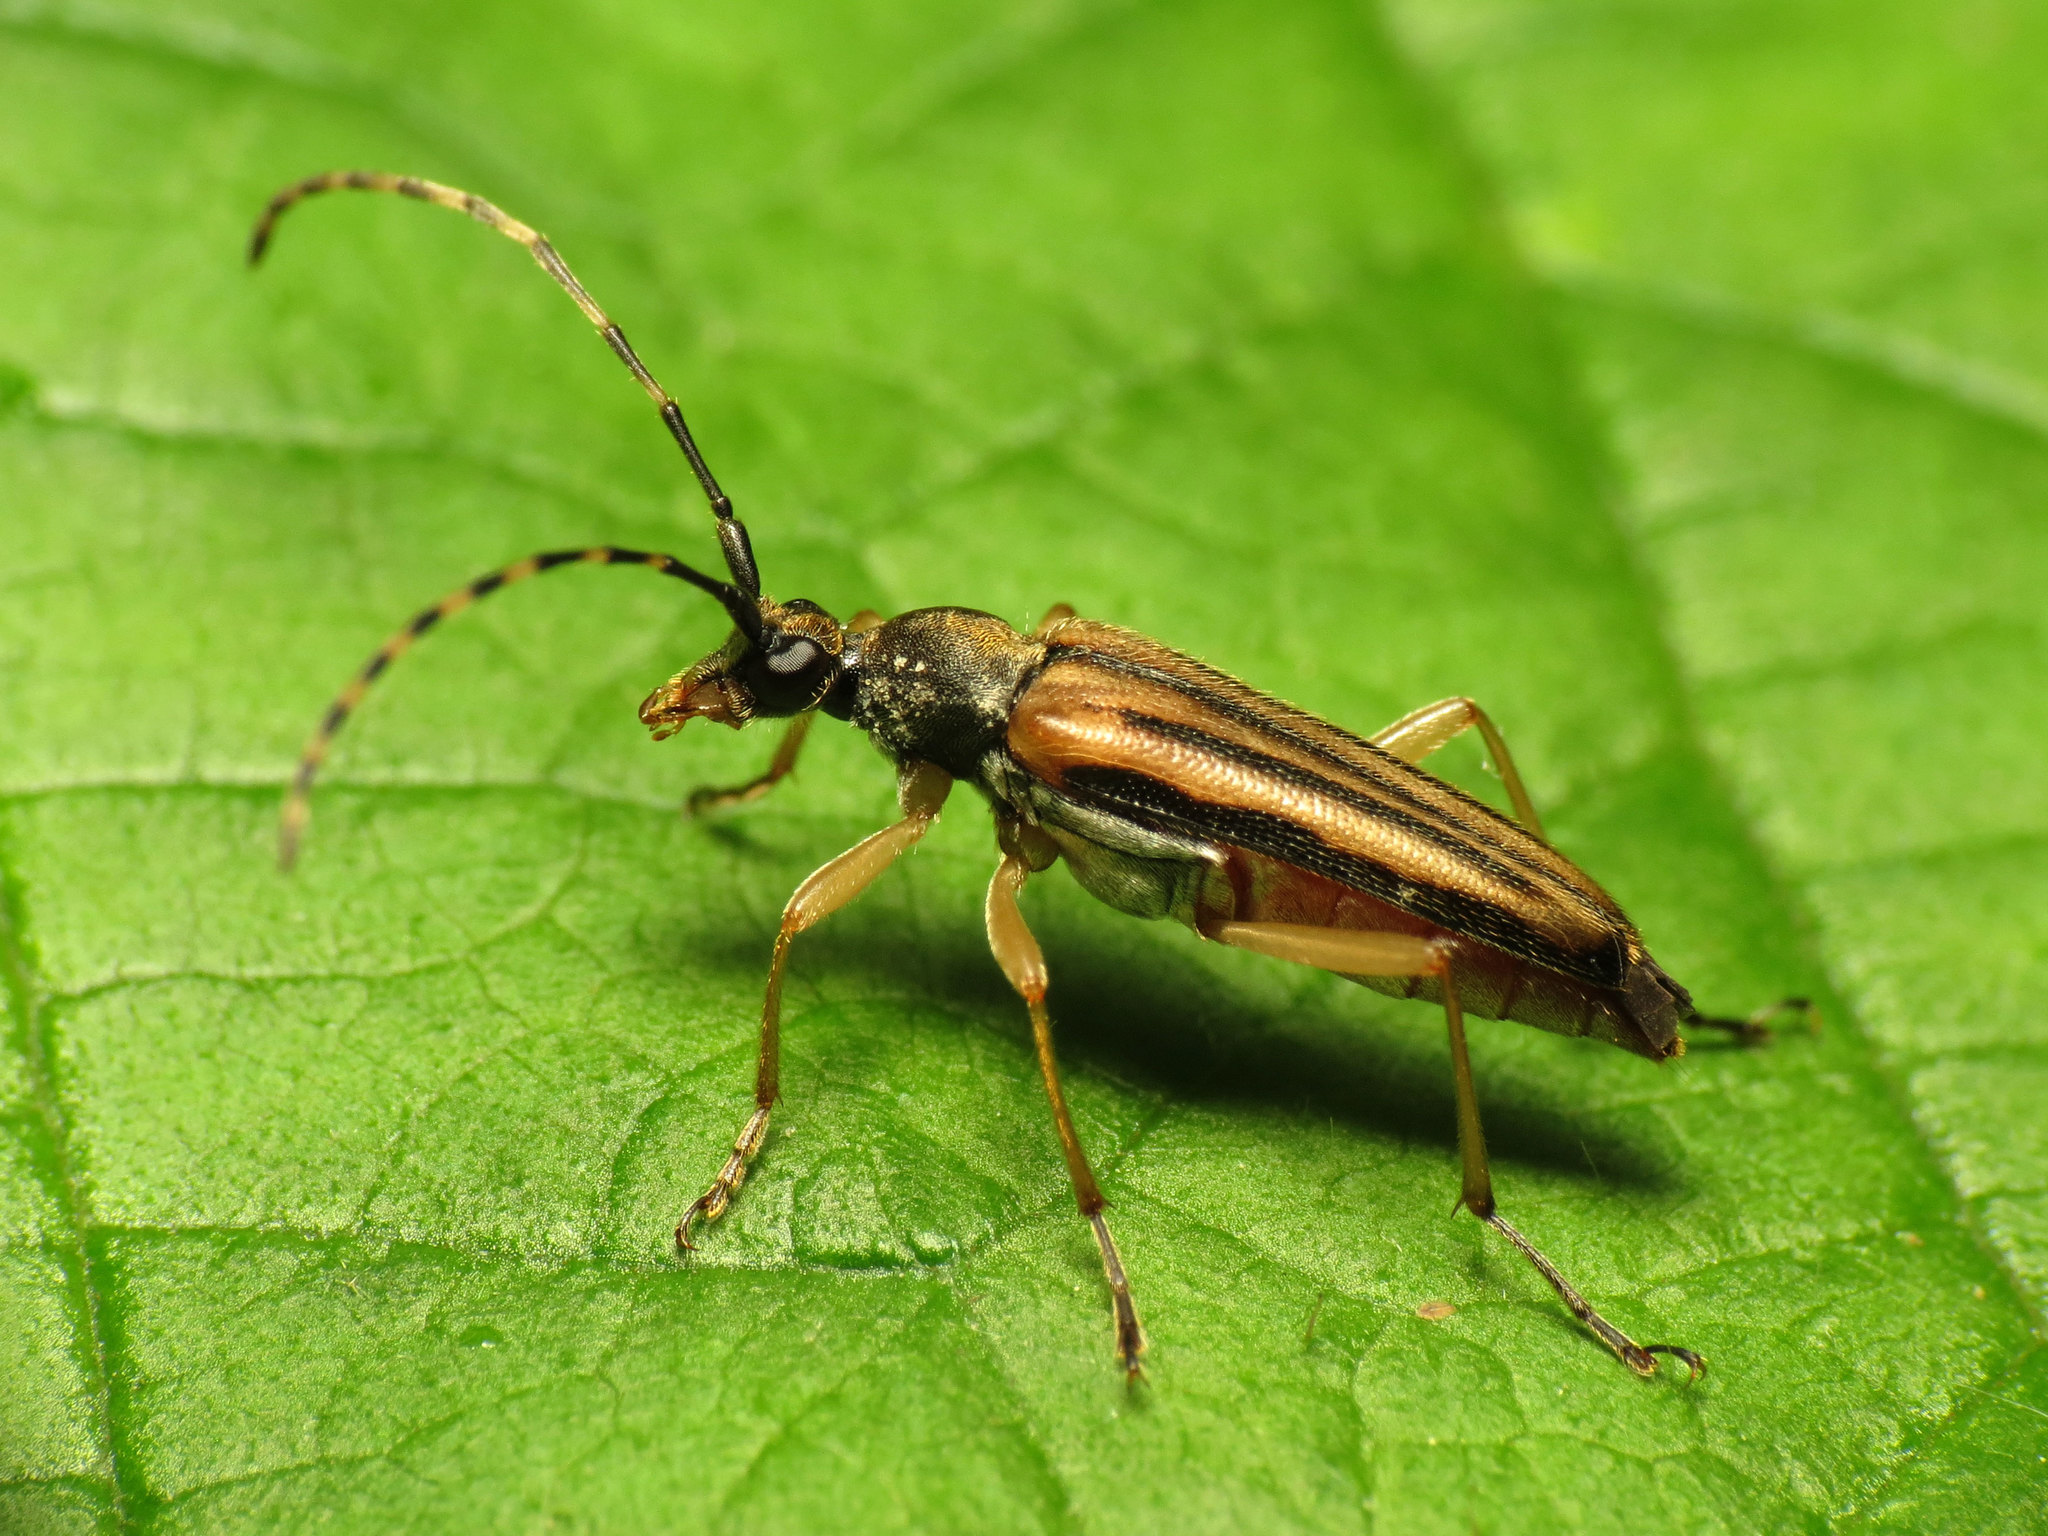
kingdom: Animalia
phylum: Arthropoda
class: Insecta
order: Coleoptera
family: Cerambycidae
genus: Analeptura
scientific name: Analeptura lineola
